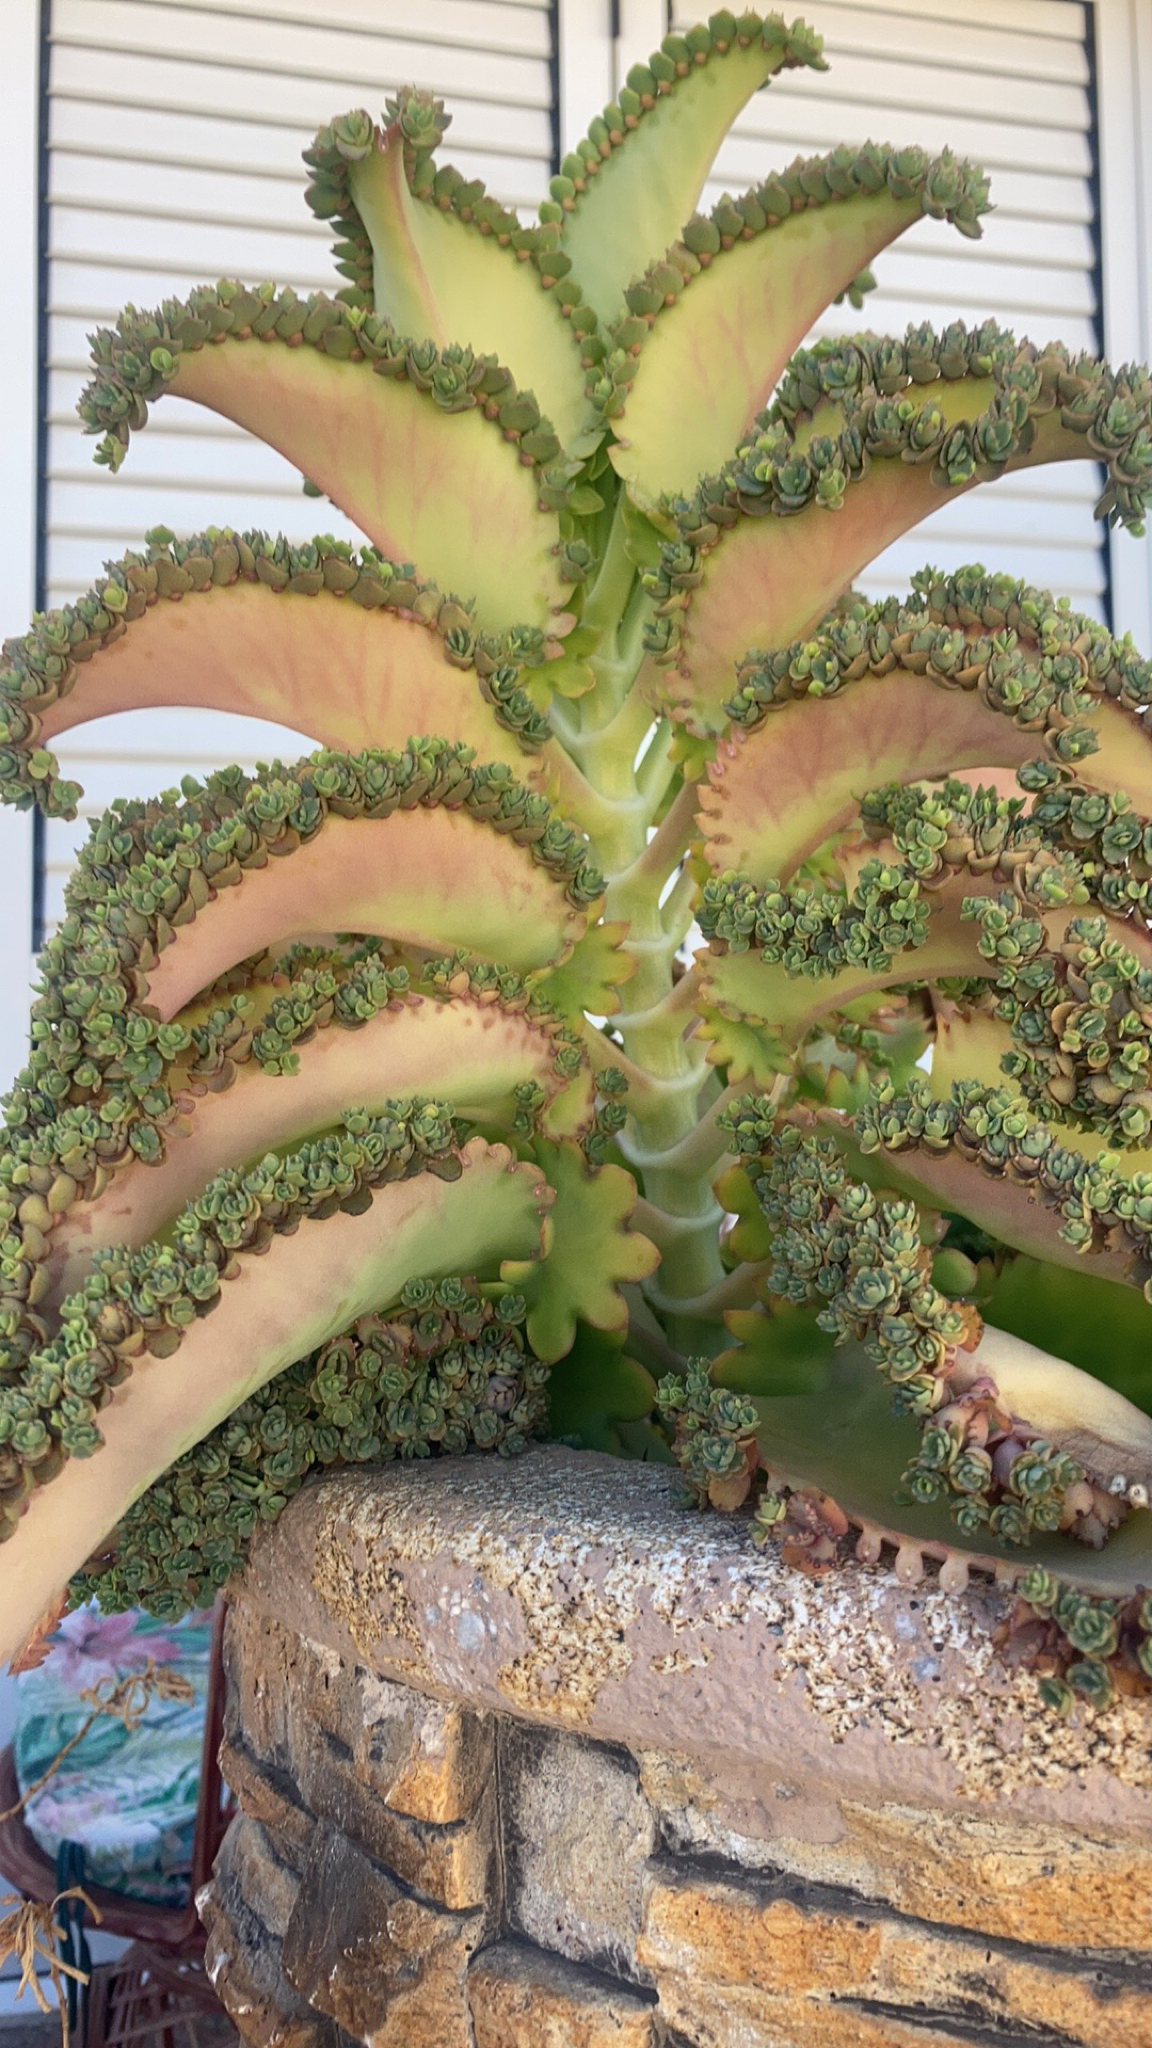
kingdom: Plantae
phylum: Tracheophyta
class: Magnoliopsida
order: Saxifragales
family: Crassulaceae
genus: Kalanchoe
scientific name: Kalanchoe laetivirens
